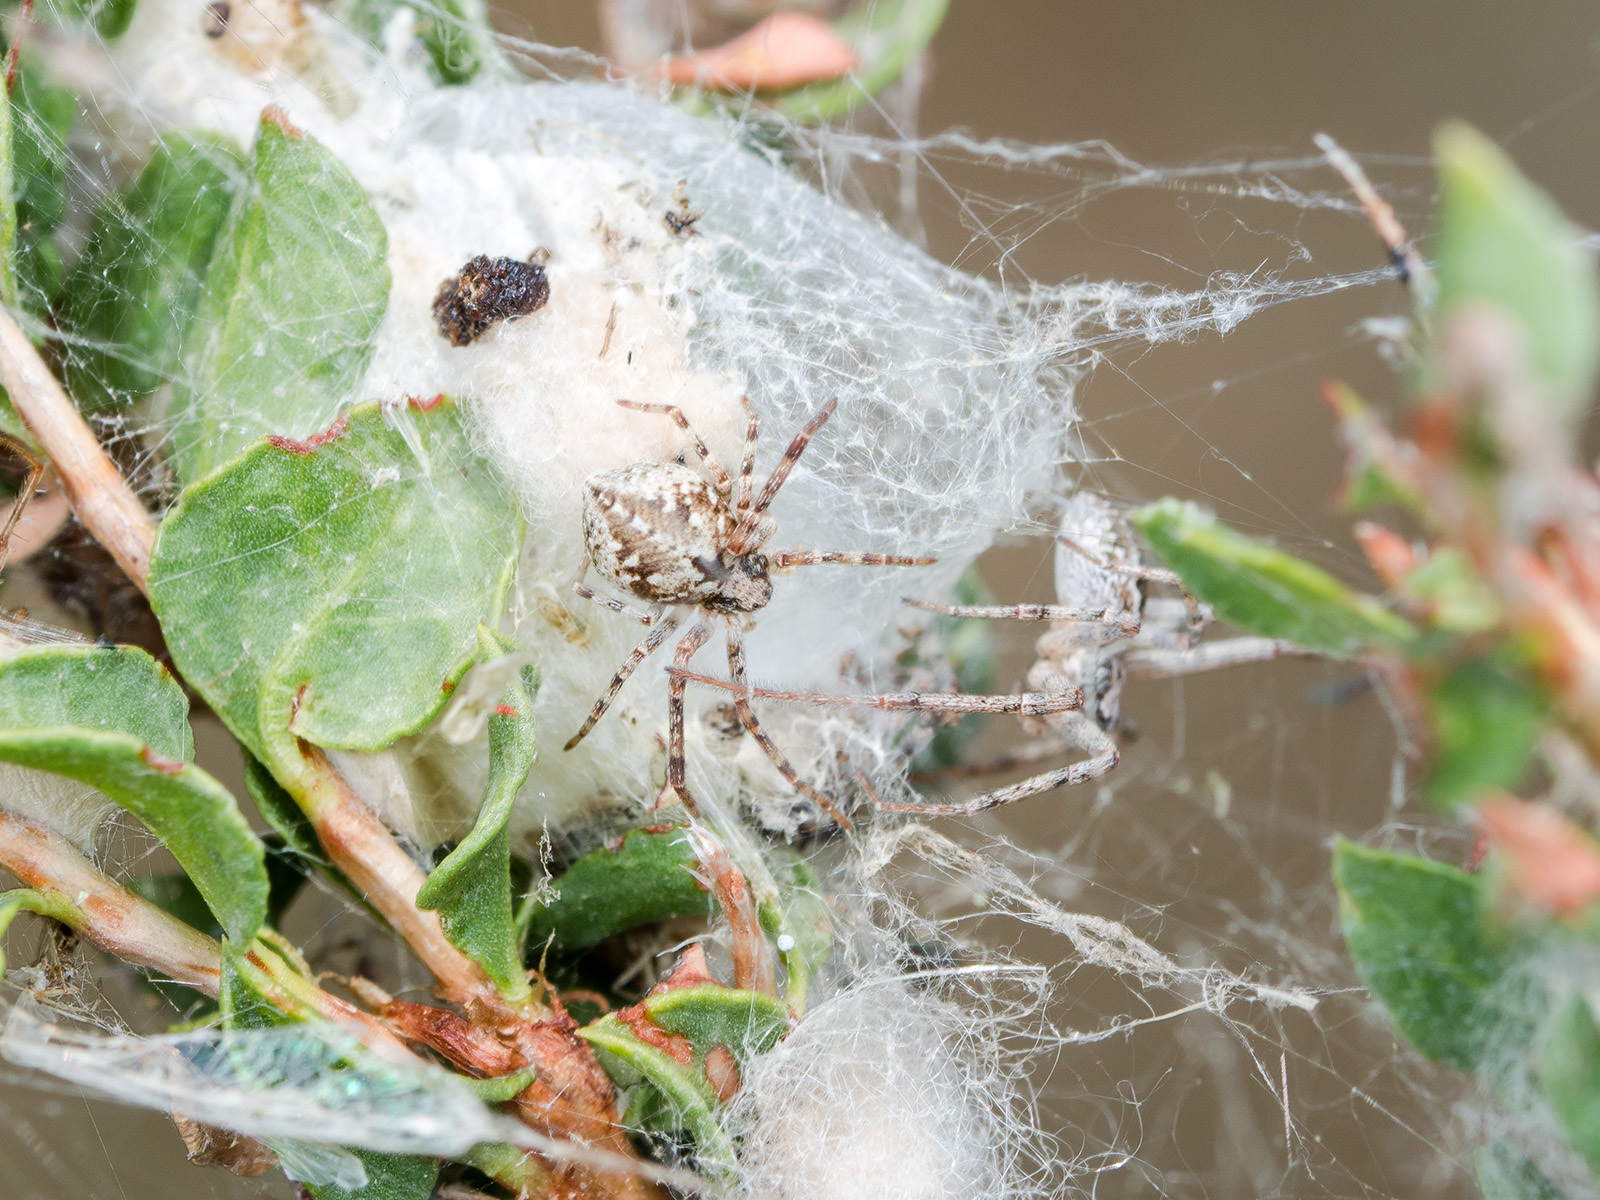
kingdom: Animalia
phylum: Arthropoda
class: Arachnida
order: Araneae
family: Philodromidae
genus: Rhysodromus
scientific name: Rhysodromus fallax
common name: Sand running-spider
